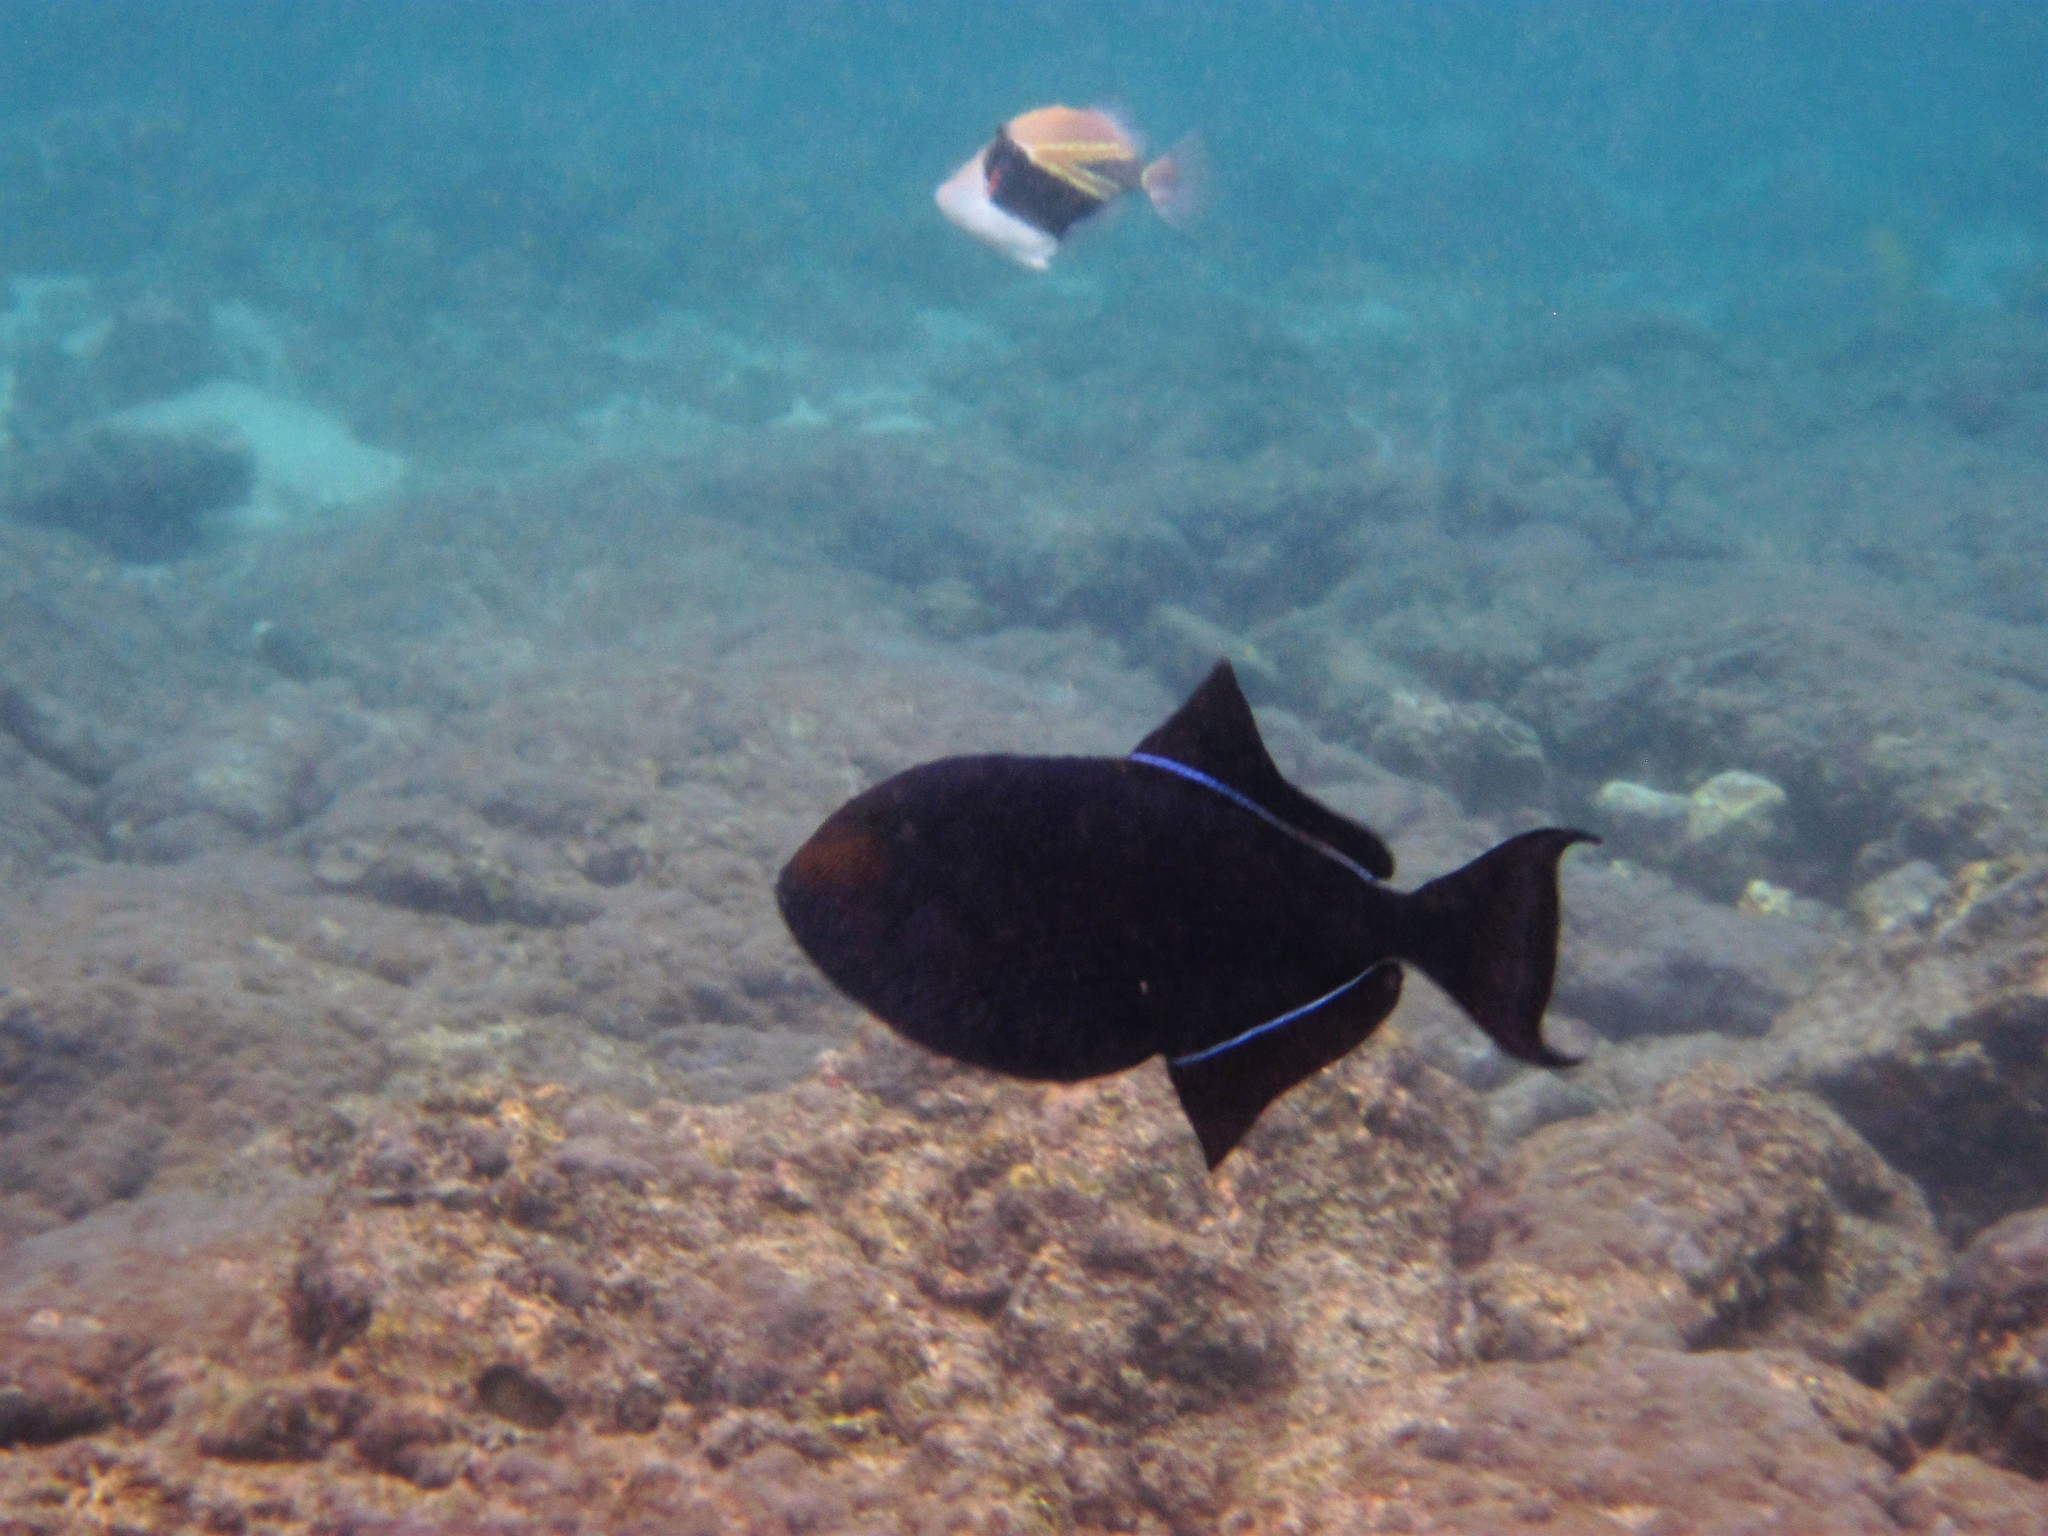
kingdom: Animalia
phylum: Chordata
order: Tetraodontiformes
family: Balistidae
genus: Melichthys
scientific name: Melichthys niger
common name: Black durgon
